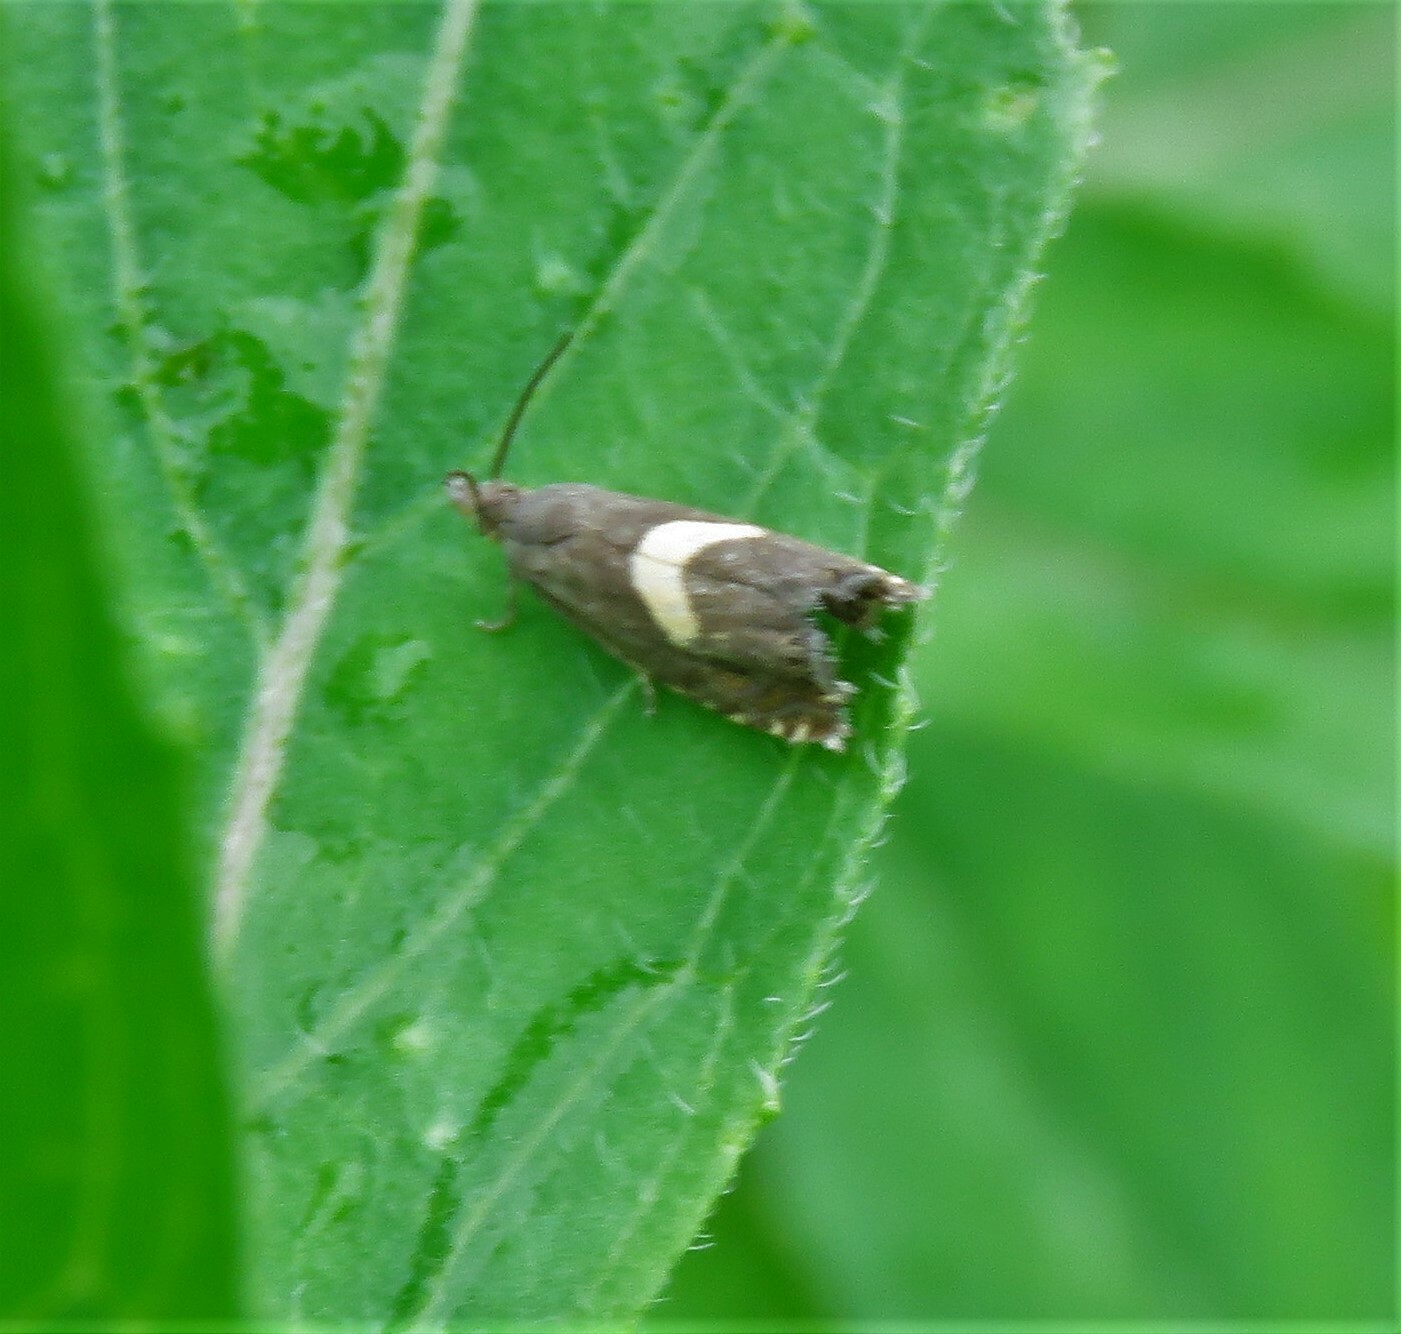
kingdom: Animalia
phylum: Arthropoda
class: Insecta
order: Lepidoptera
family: Tortricidae
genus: Dichrorampha
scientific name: Dichrorampha petiverella
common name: Common drill
